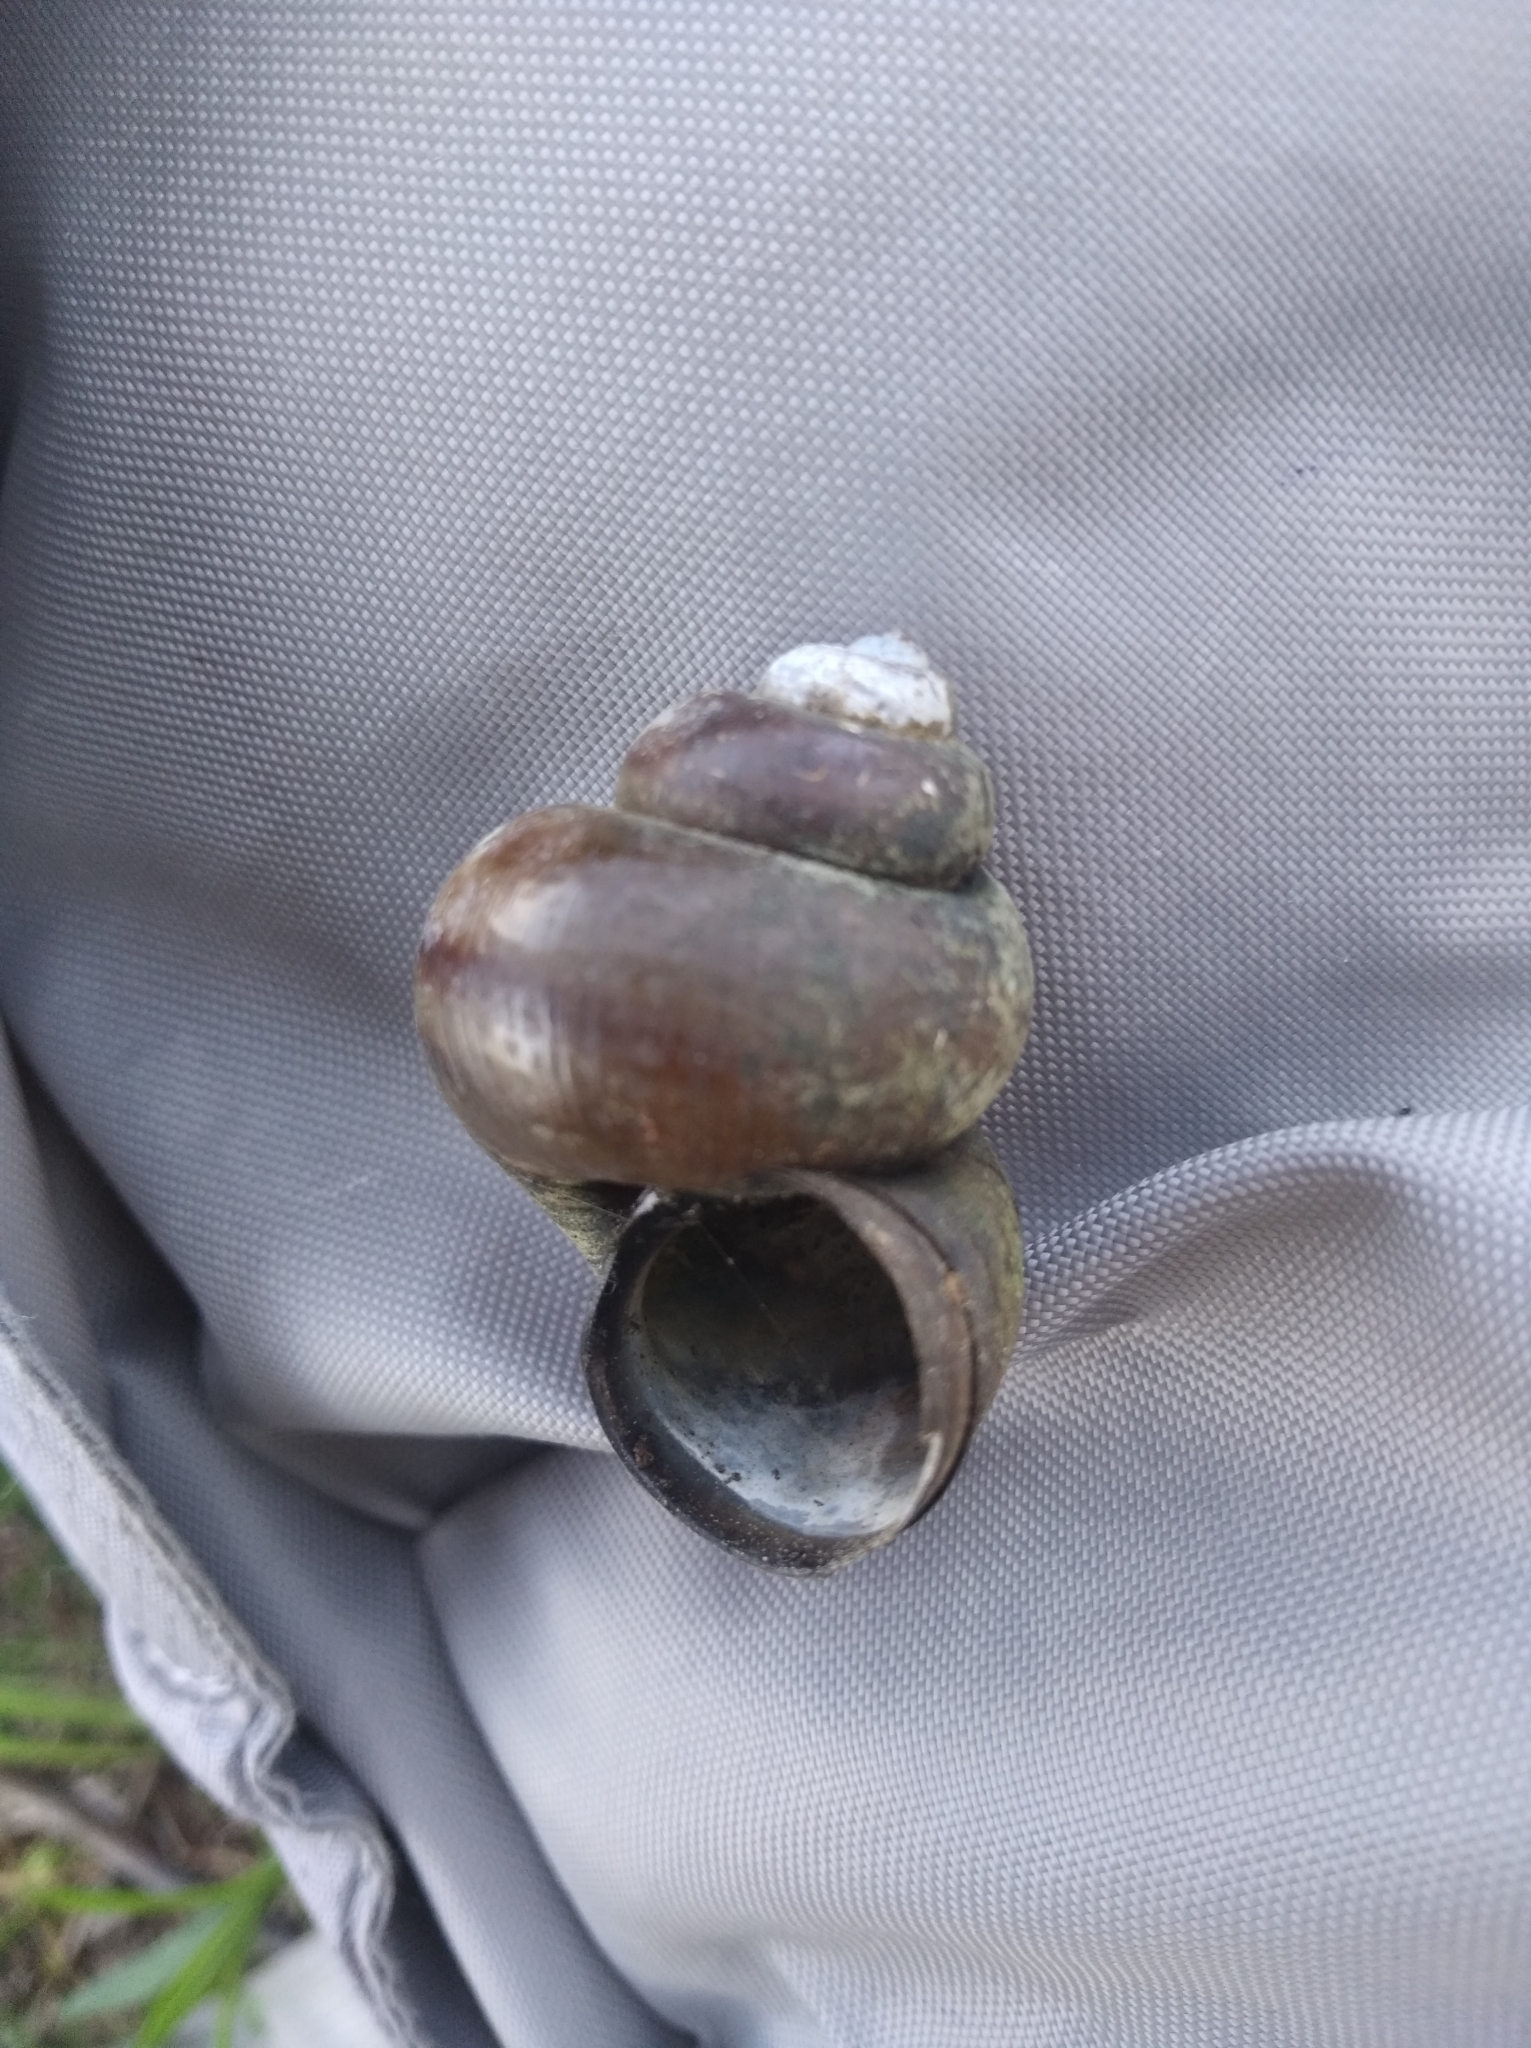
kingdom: Animalia
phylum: Mollusca
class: Gastropoda
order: Architaenioglossa
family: Viviparidae
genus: Viviparus
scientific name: Viviparus contectus
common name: Lister's river snail
